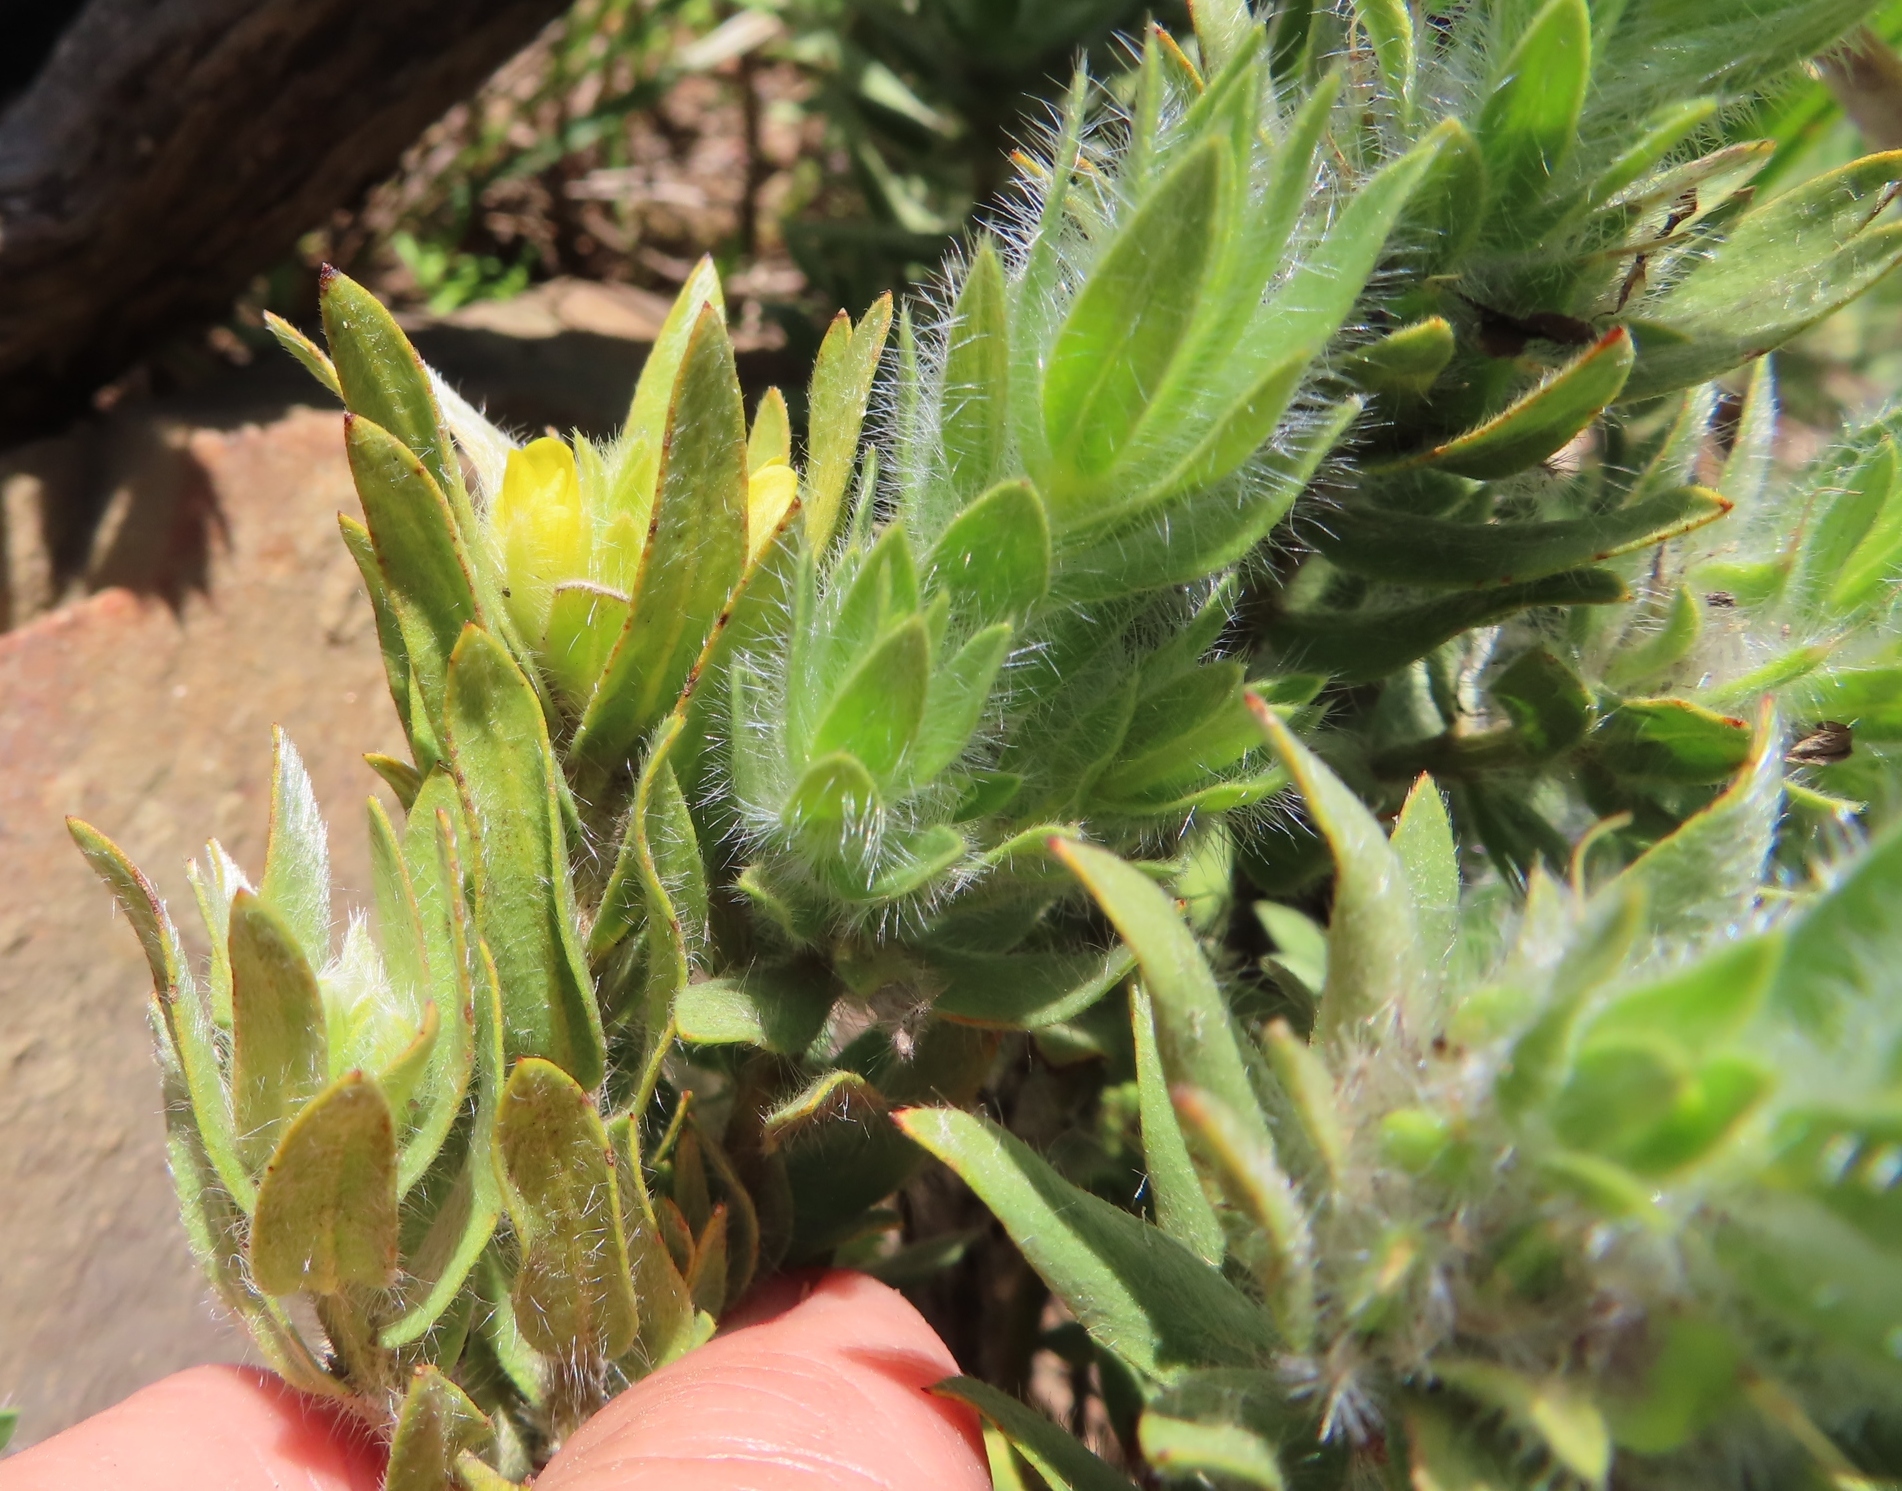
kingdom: Plantae
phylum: Tracheophyta
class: Magnoliopsida
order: Fabales
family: Fabaceae
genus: Xiphotheca
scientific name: Xiphotheca lanceolata
